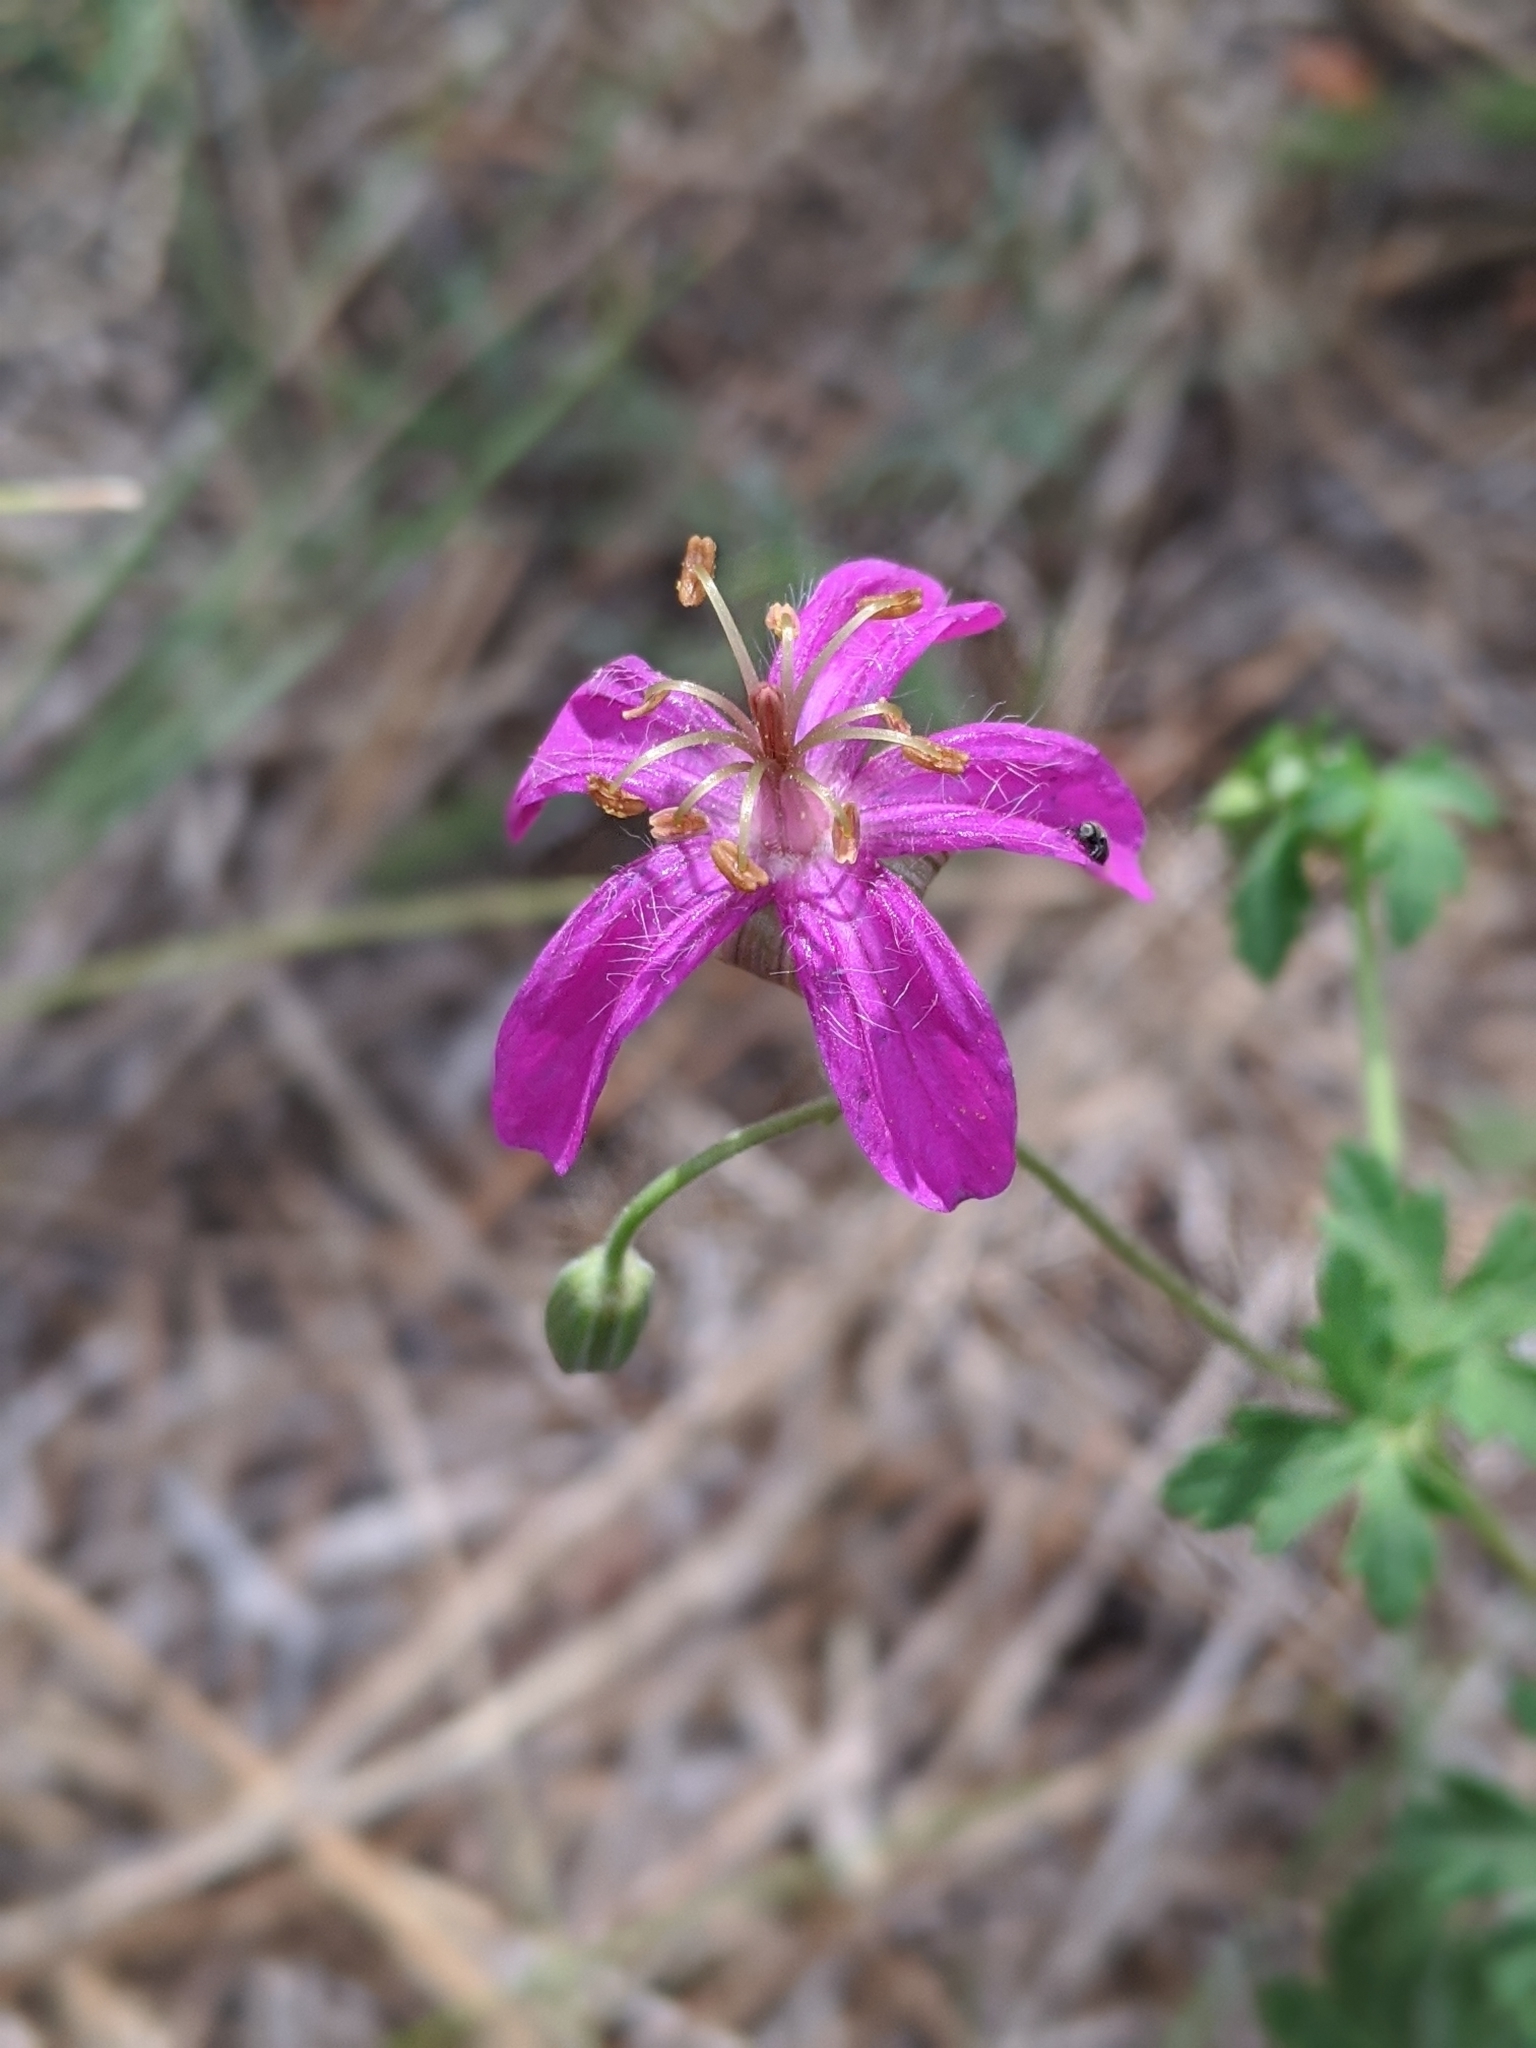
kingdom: Plantae
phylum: Tracheophyta
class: Magnoliopsida
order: Geraniales
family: Geraniaceae
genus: Geranium
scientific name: Geranium caespitosum
